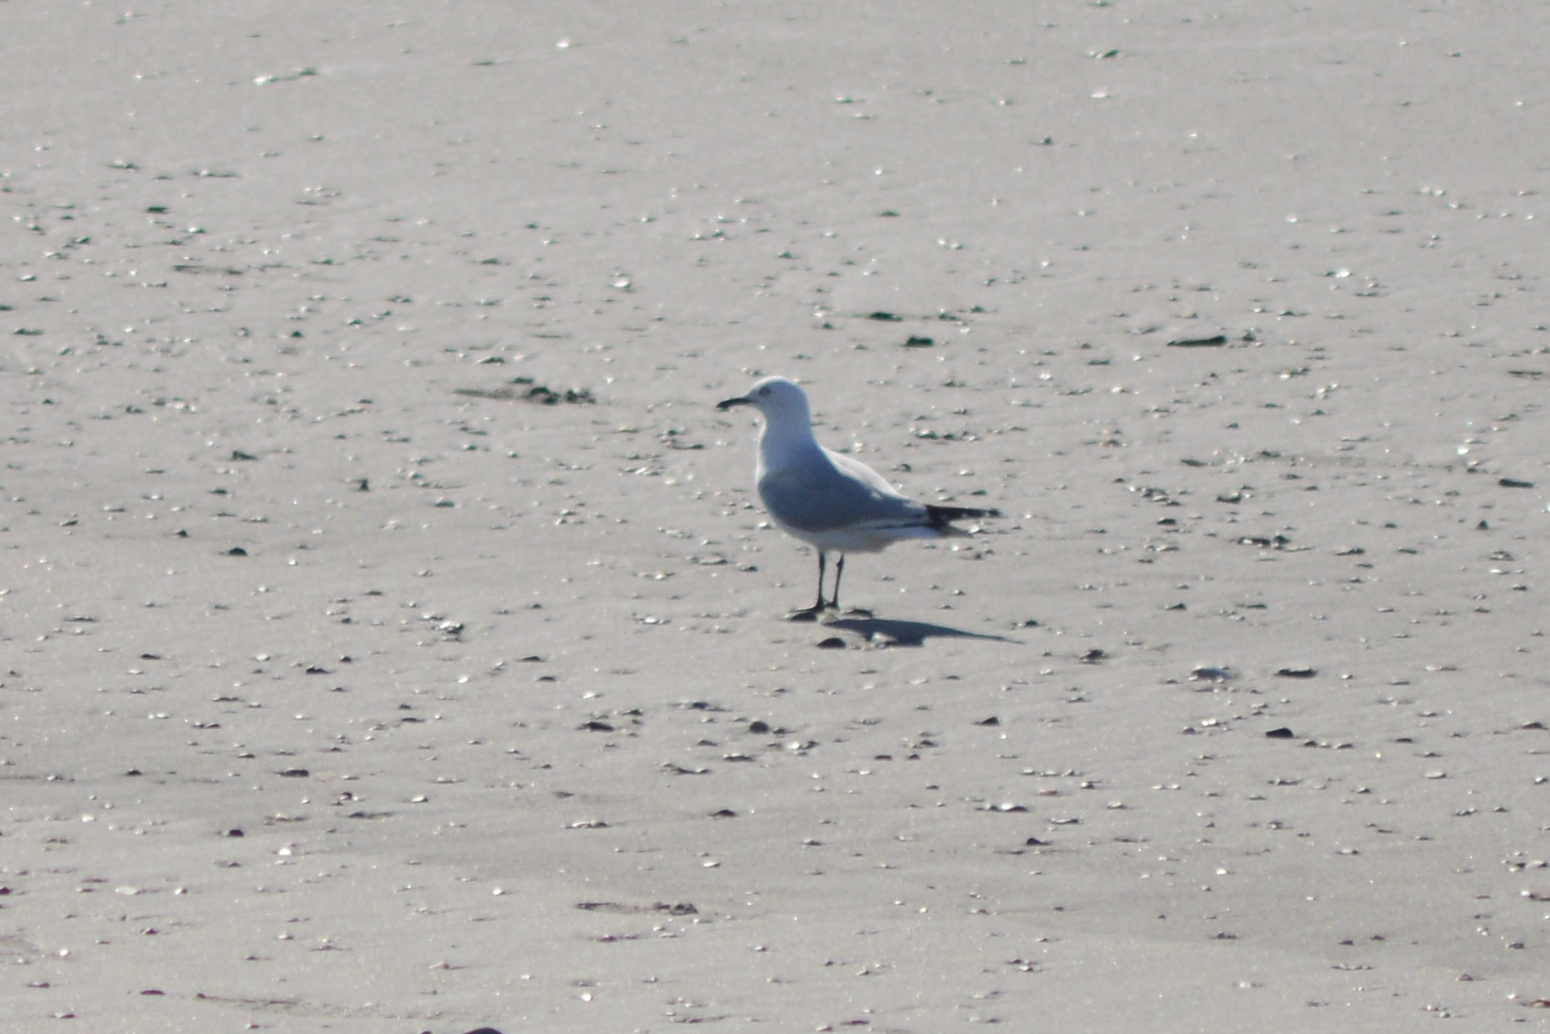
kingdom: Animalia
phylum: Chordata
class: Aves
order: Charadriiformes
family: Laridae
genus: Chroicocephalus
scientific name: Chroicocephalus bulleri
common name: Black-billed gull
